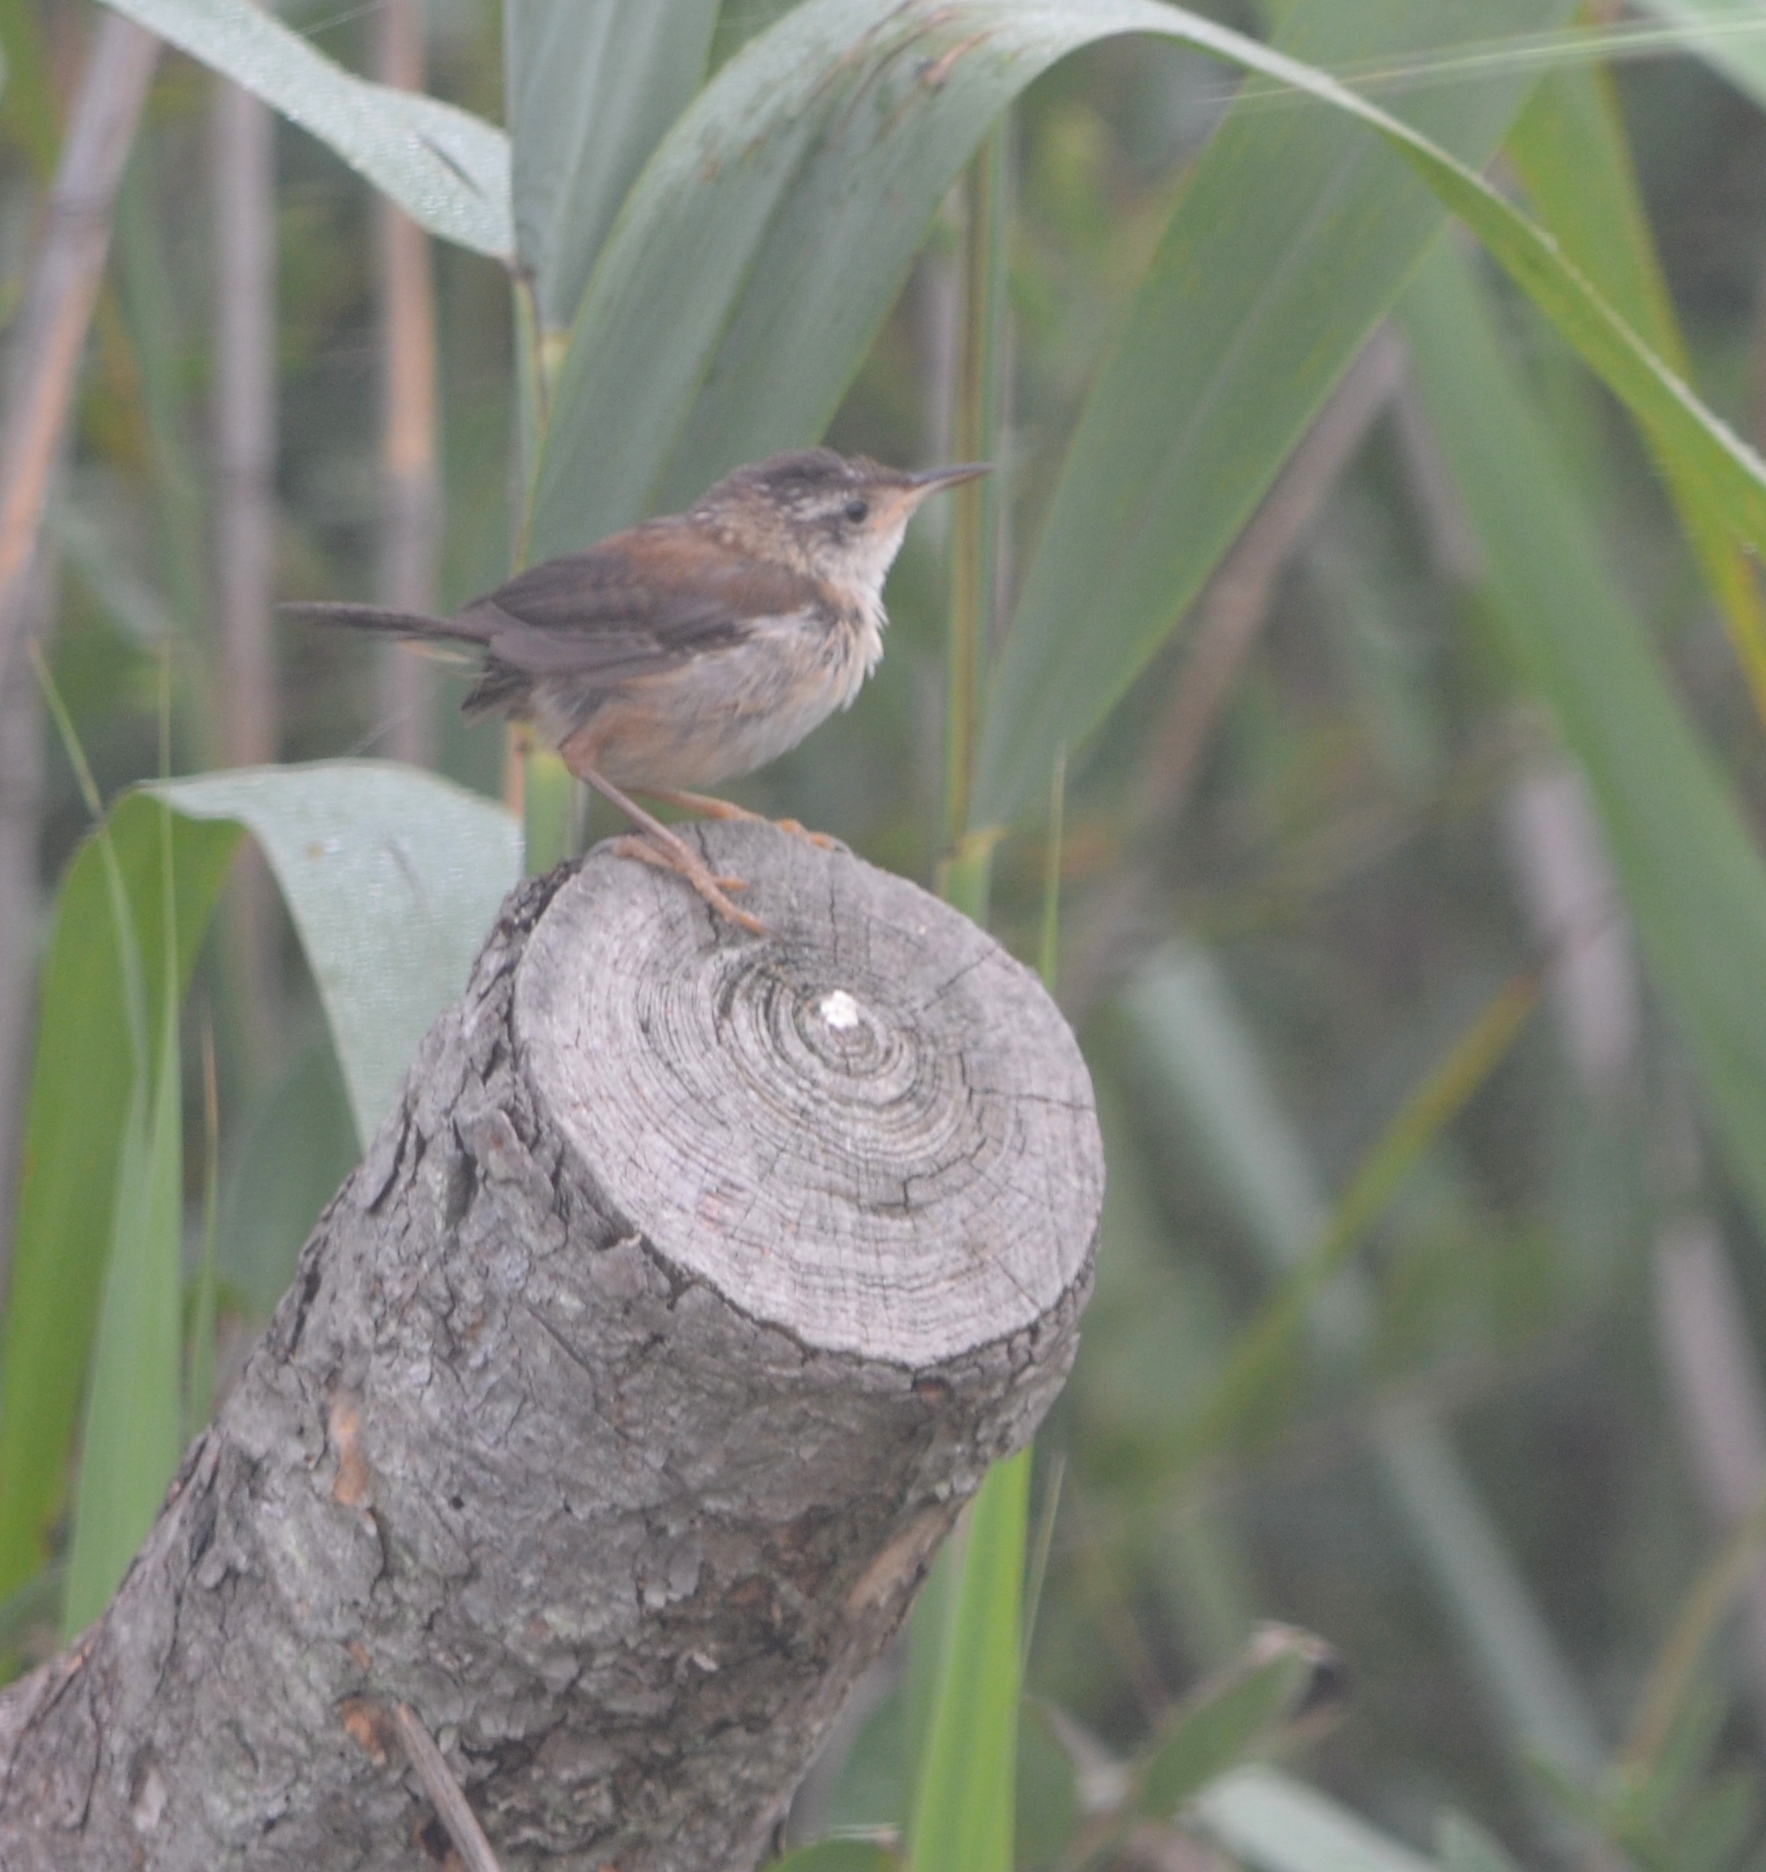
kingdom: Animalia
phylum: Chordata
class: Aves
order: Passeriformes
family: Troglodytidae
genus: Cistothorus
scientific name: Cistothorus palustris
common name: Marsh wren
